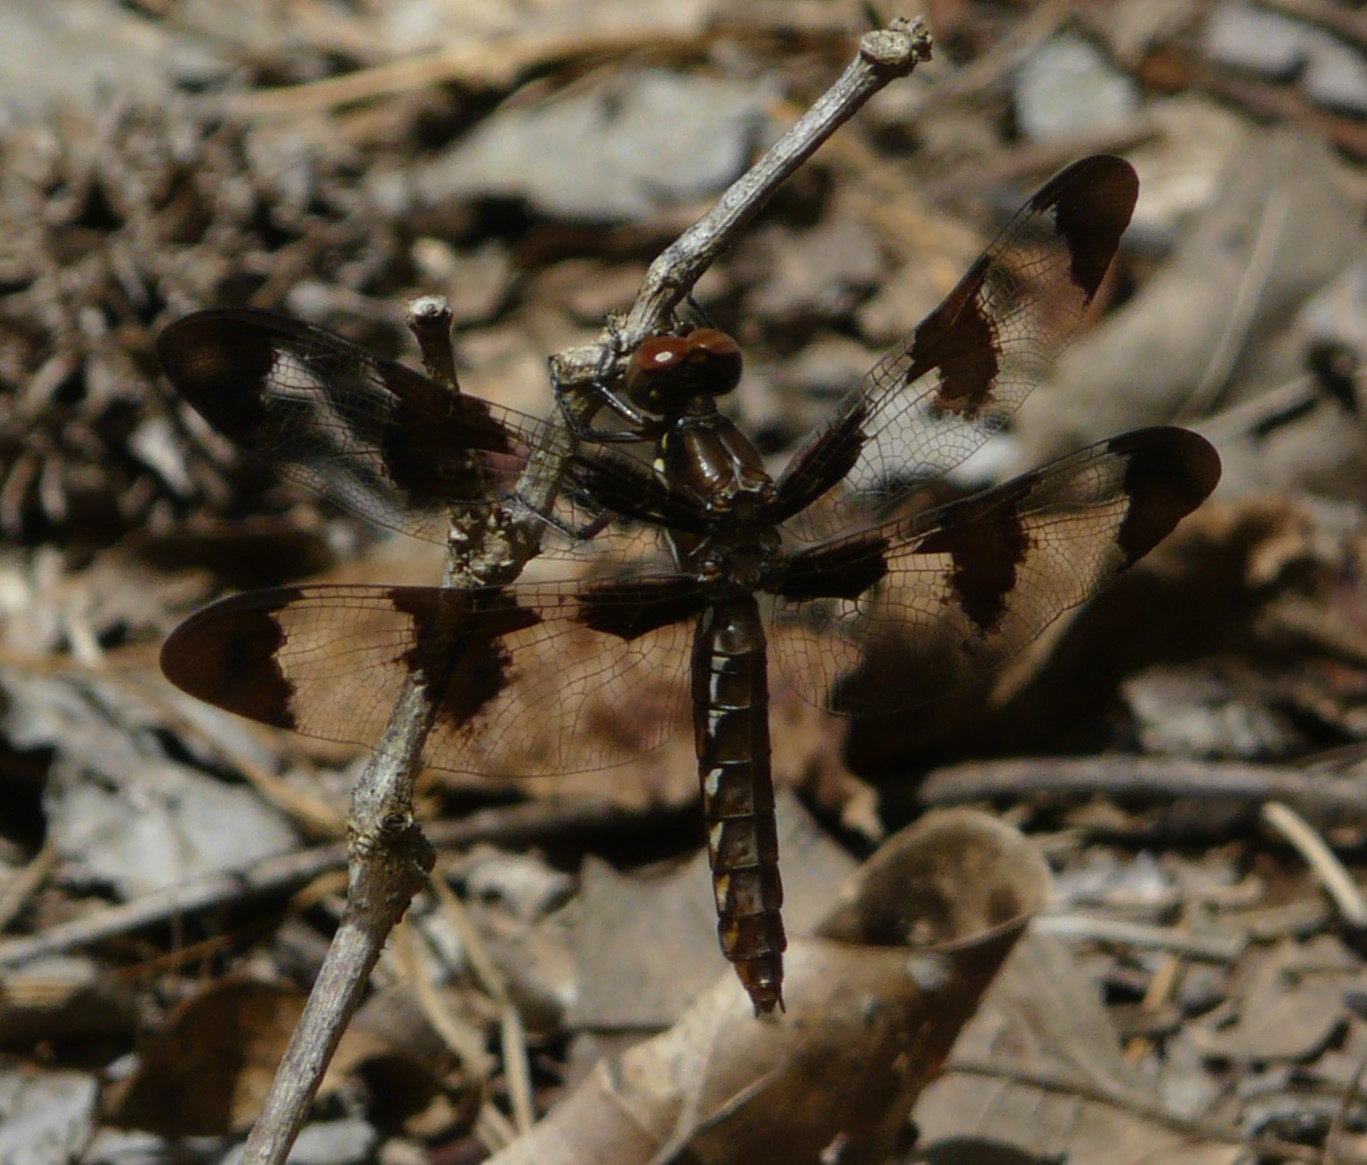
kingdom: Animalia
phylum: Arthropoda
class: Insecta
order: Odonata
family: Libellulidae
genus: Plathemis
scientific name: Plathemis lydia
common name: Common whitetail
